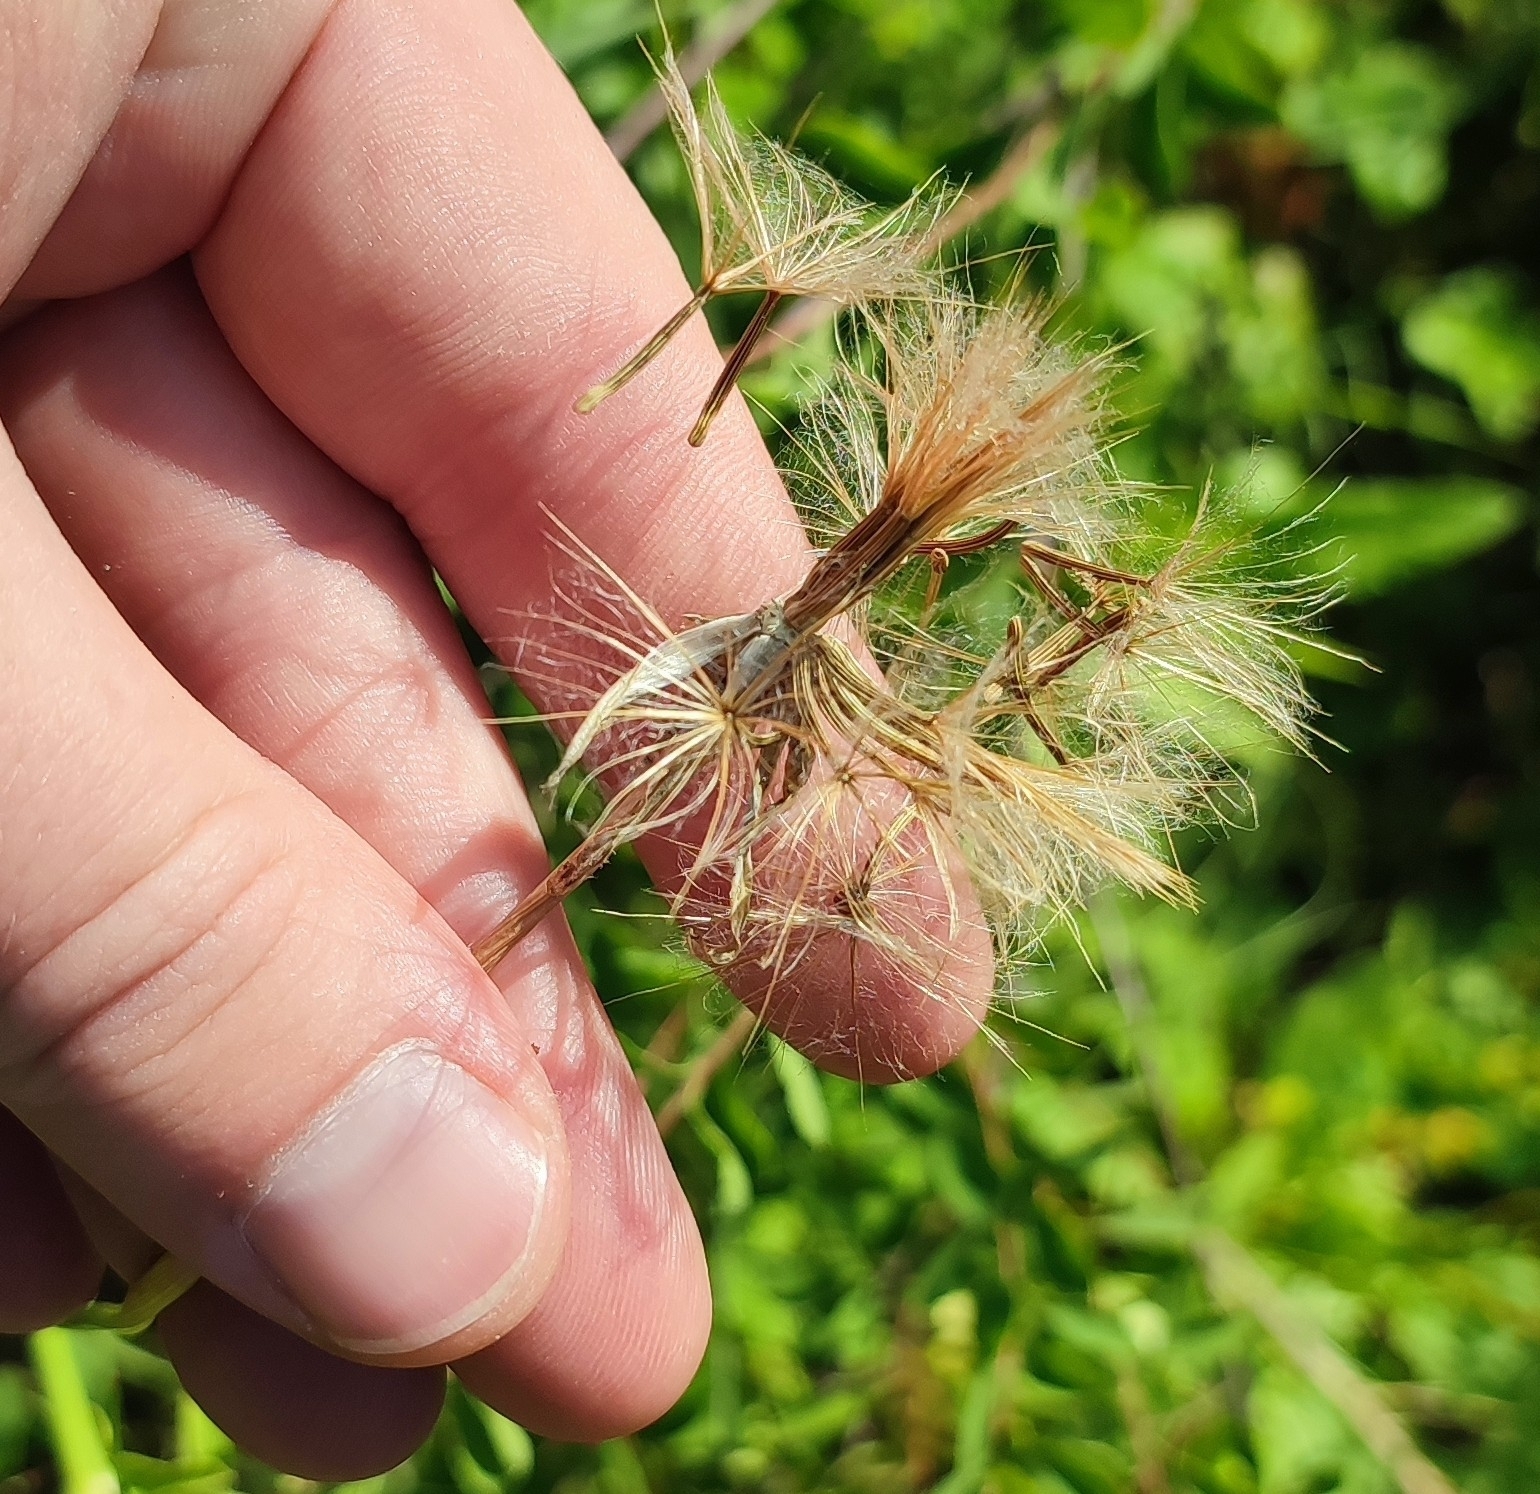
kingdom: Plantae
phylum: Tracheophyta
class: Magnoliopsida
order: Asterales
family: Asteraceae
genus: Scorzonera
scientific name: Scorzonera purpurea
